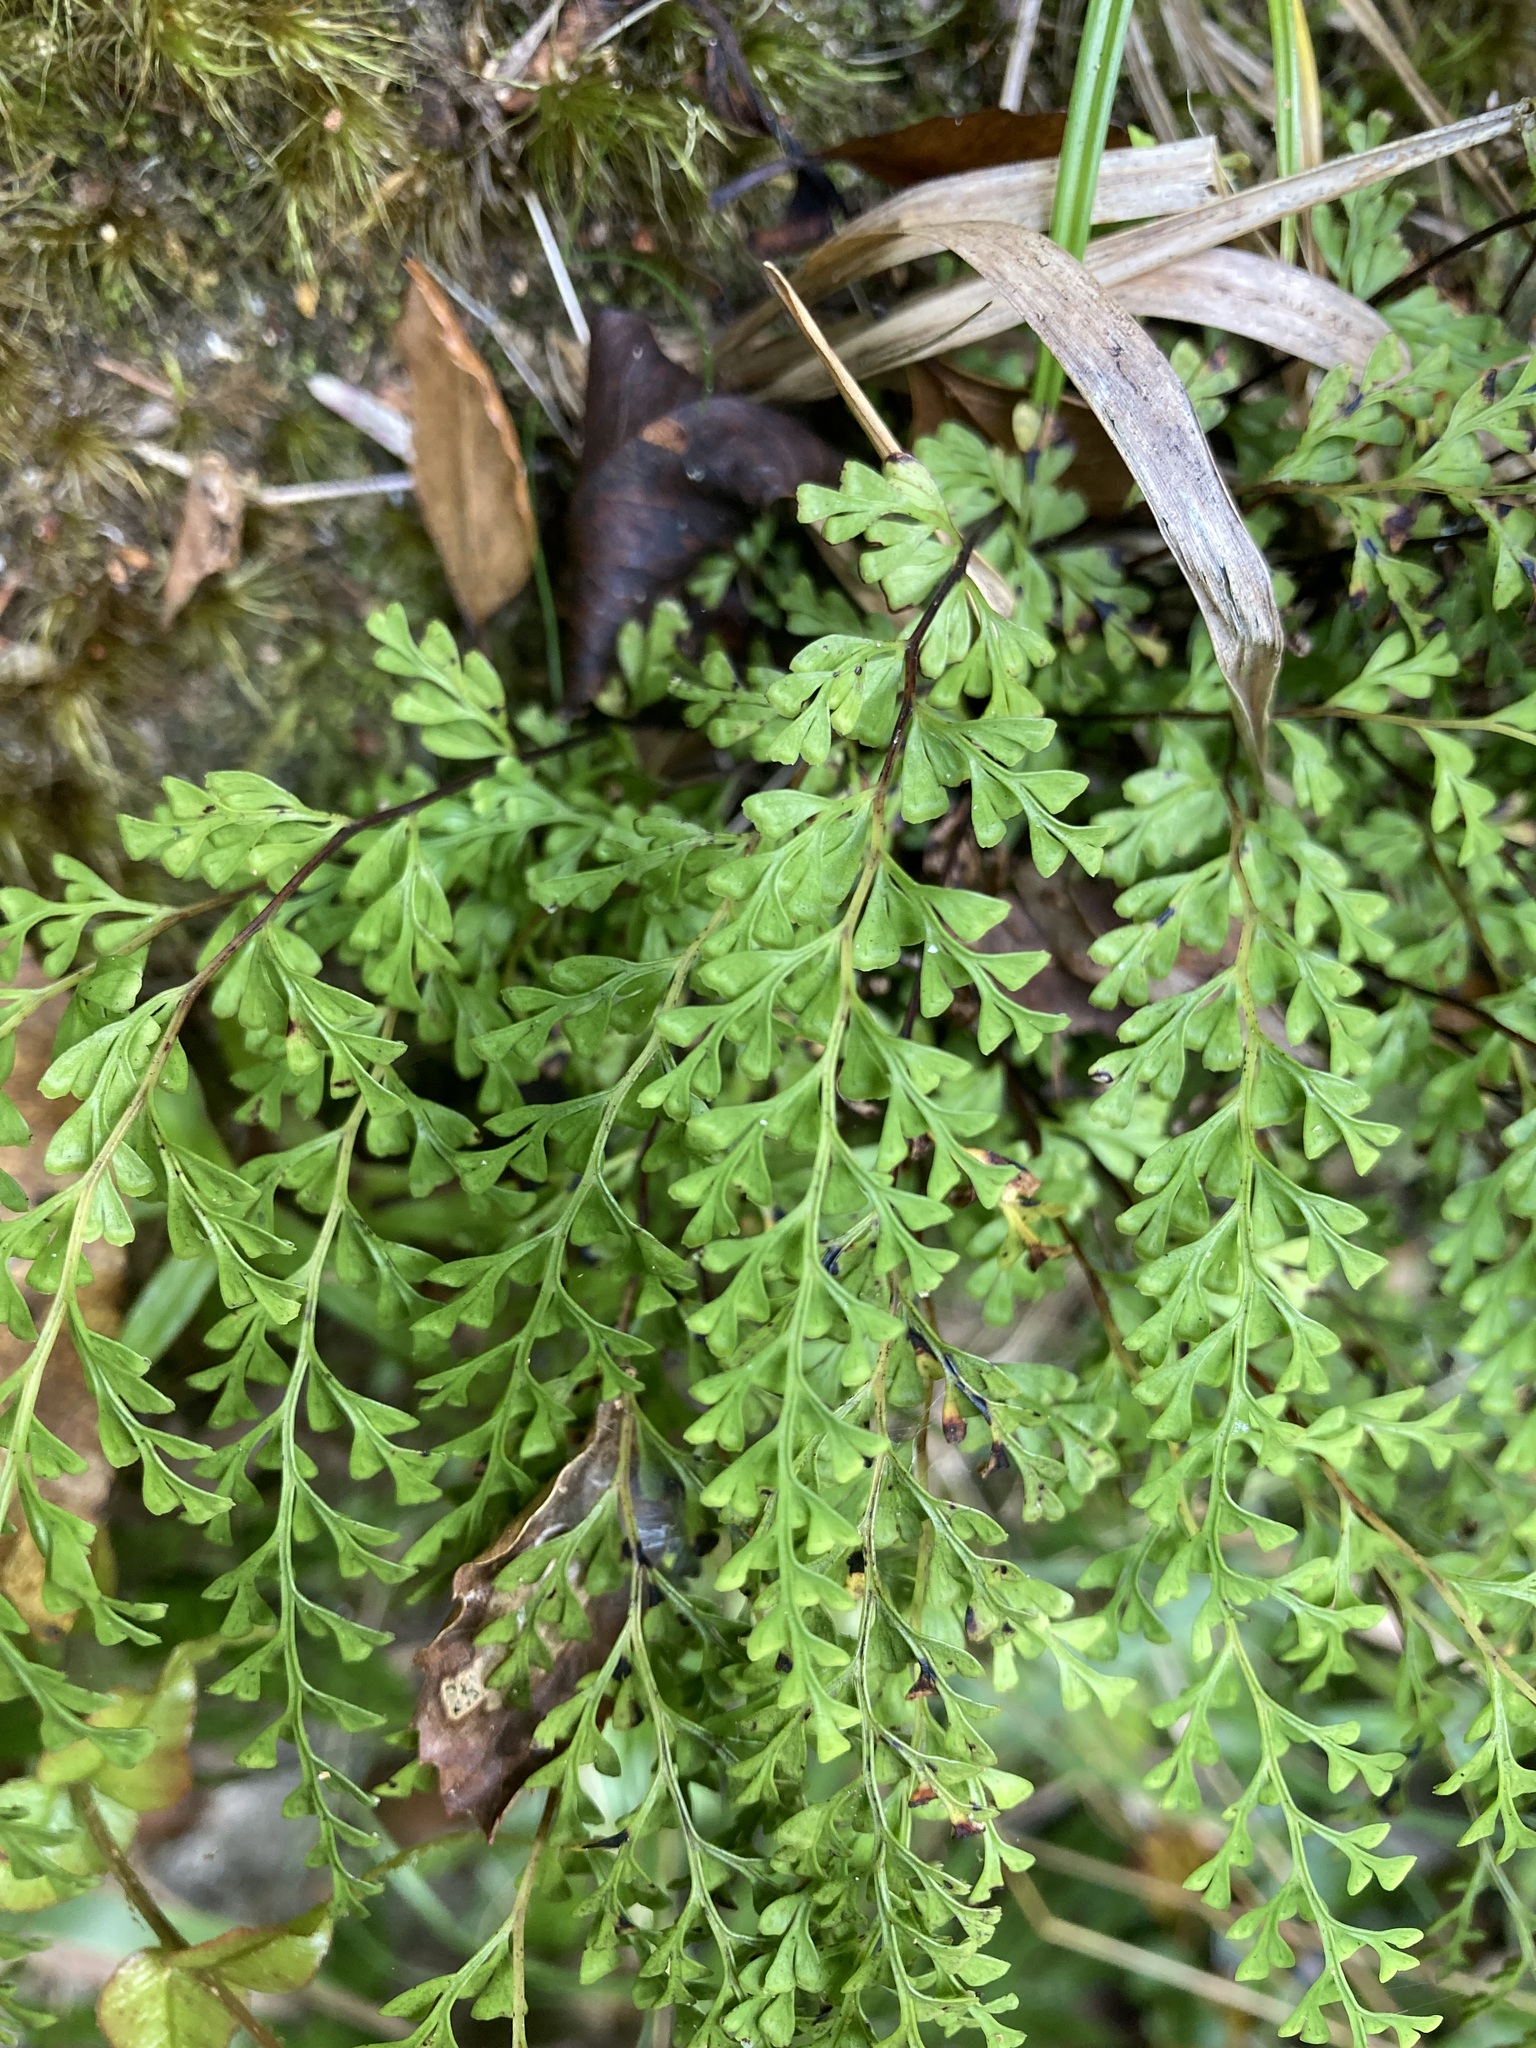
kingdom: Plantae
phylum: Tracheophyta
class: Polypodiopsida
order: Polypodiales
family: Lindsaeaceae
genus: Odontosoria
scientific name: Odontosoria viridis
